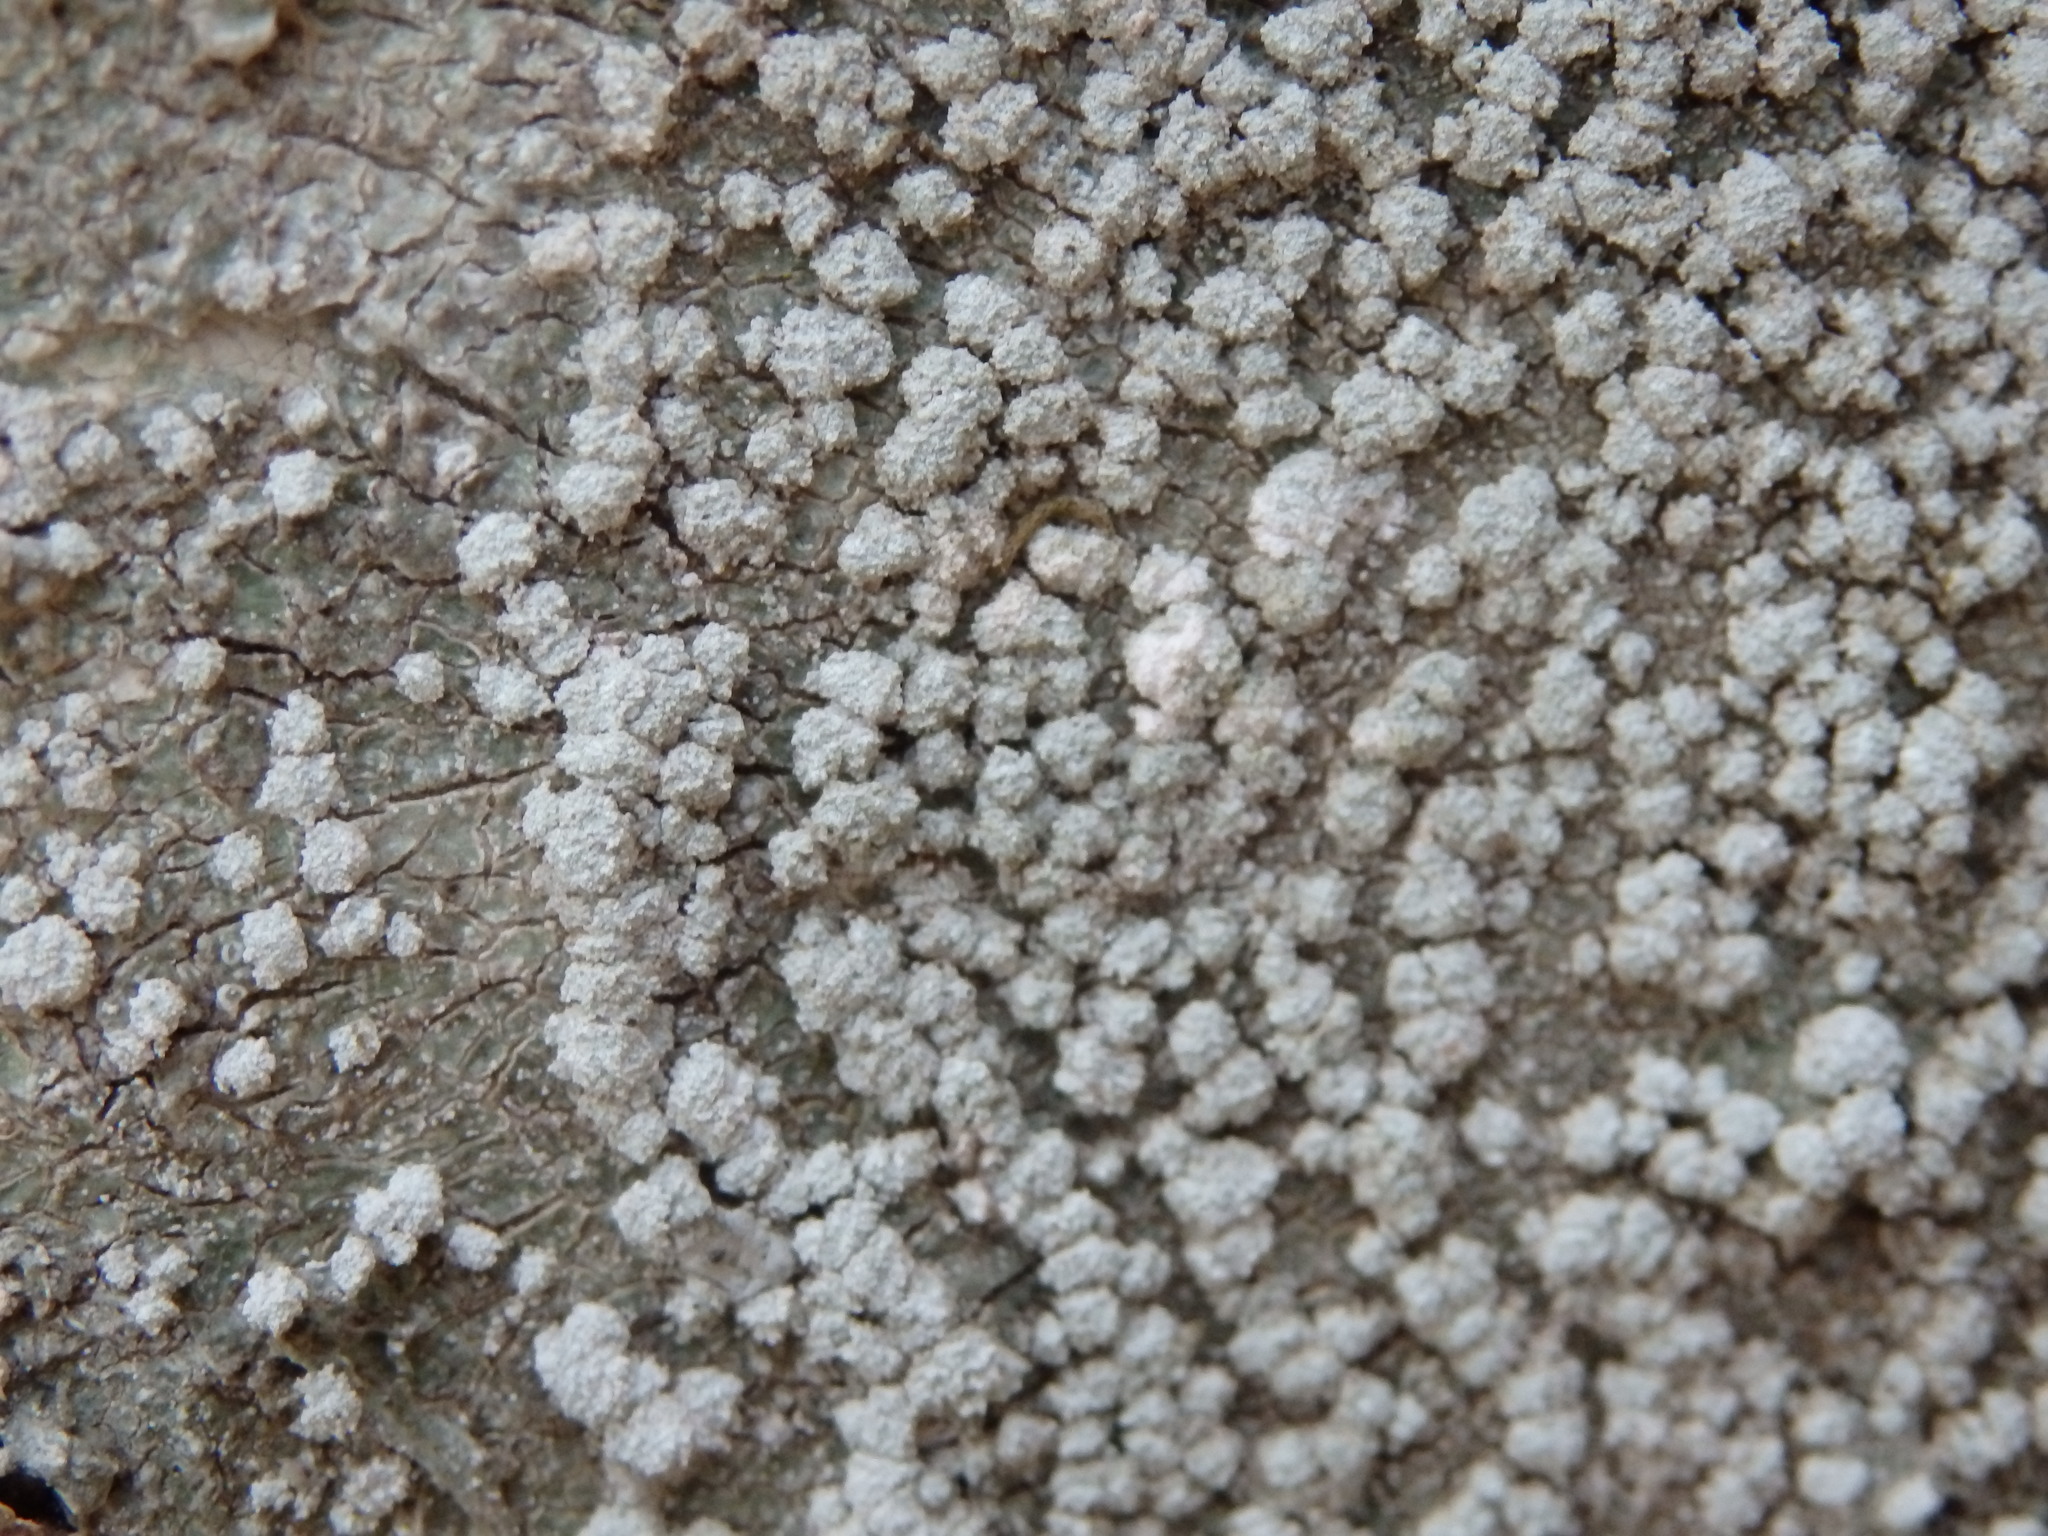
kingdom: Fungi
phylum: Ascomycota
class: Lecanoromycetes
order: Pertusariales
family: Pertusariaceae
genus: Lepra
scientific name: Lepra amara
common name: Bitter wart lichen
